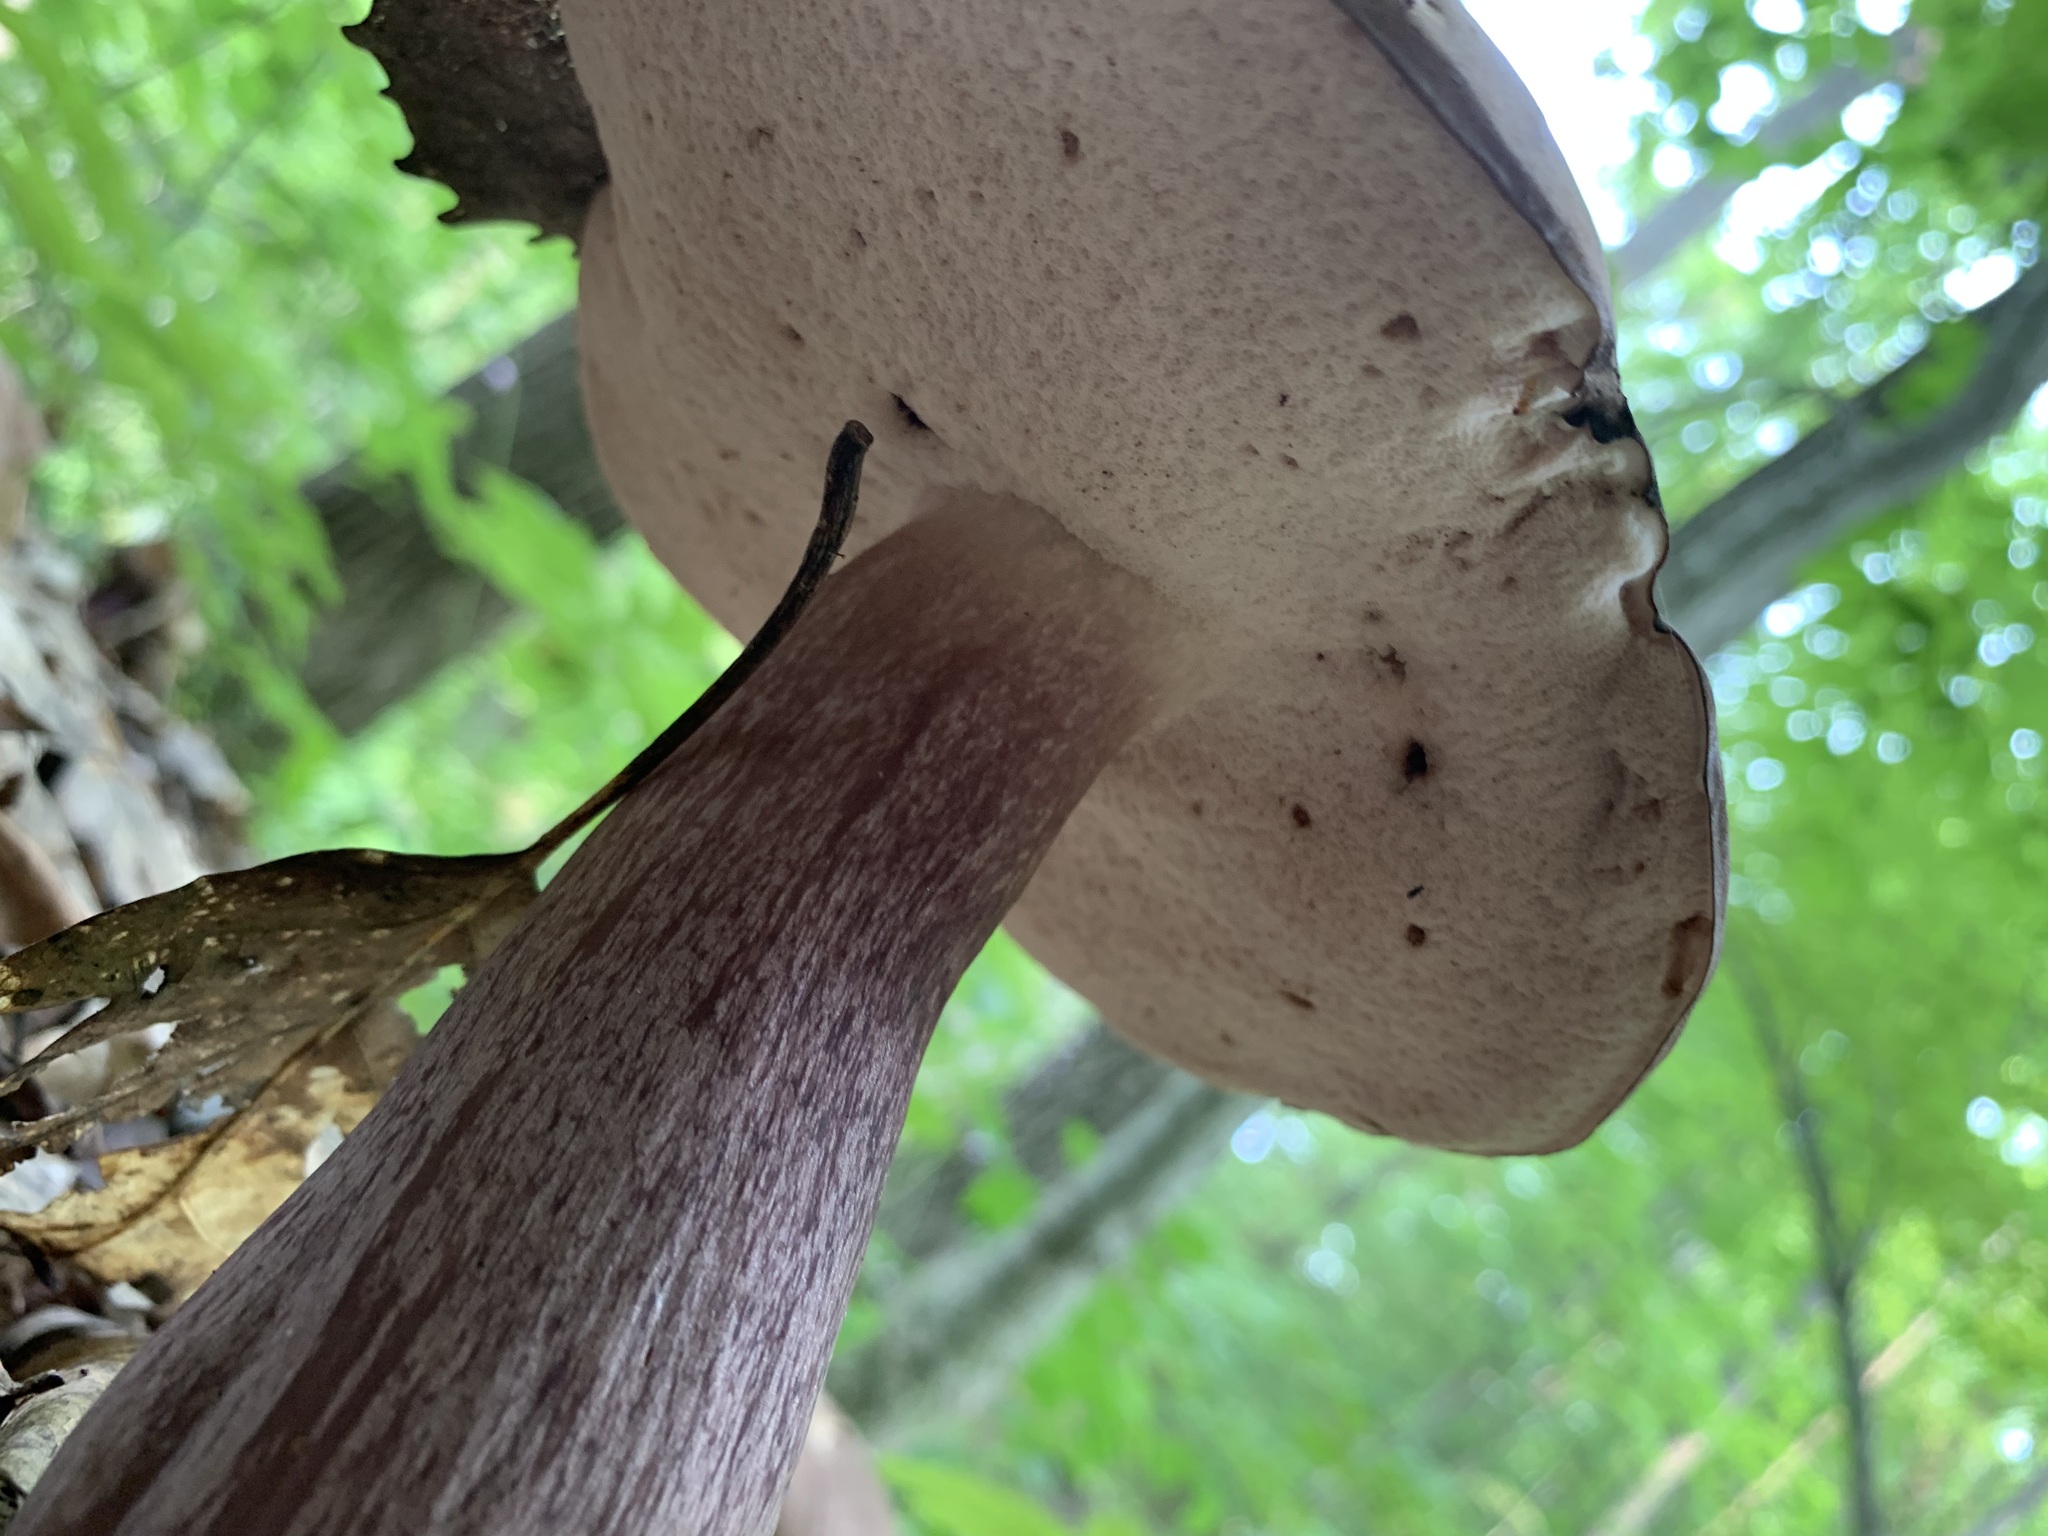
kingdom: Fungi
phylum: Basidiomycota
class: Agaricomycetes
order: Boletales
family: Boletaceae
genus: Tylopilus
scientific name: Tylopilus plumbeoviolaceus
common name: Violet gray bolete
